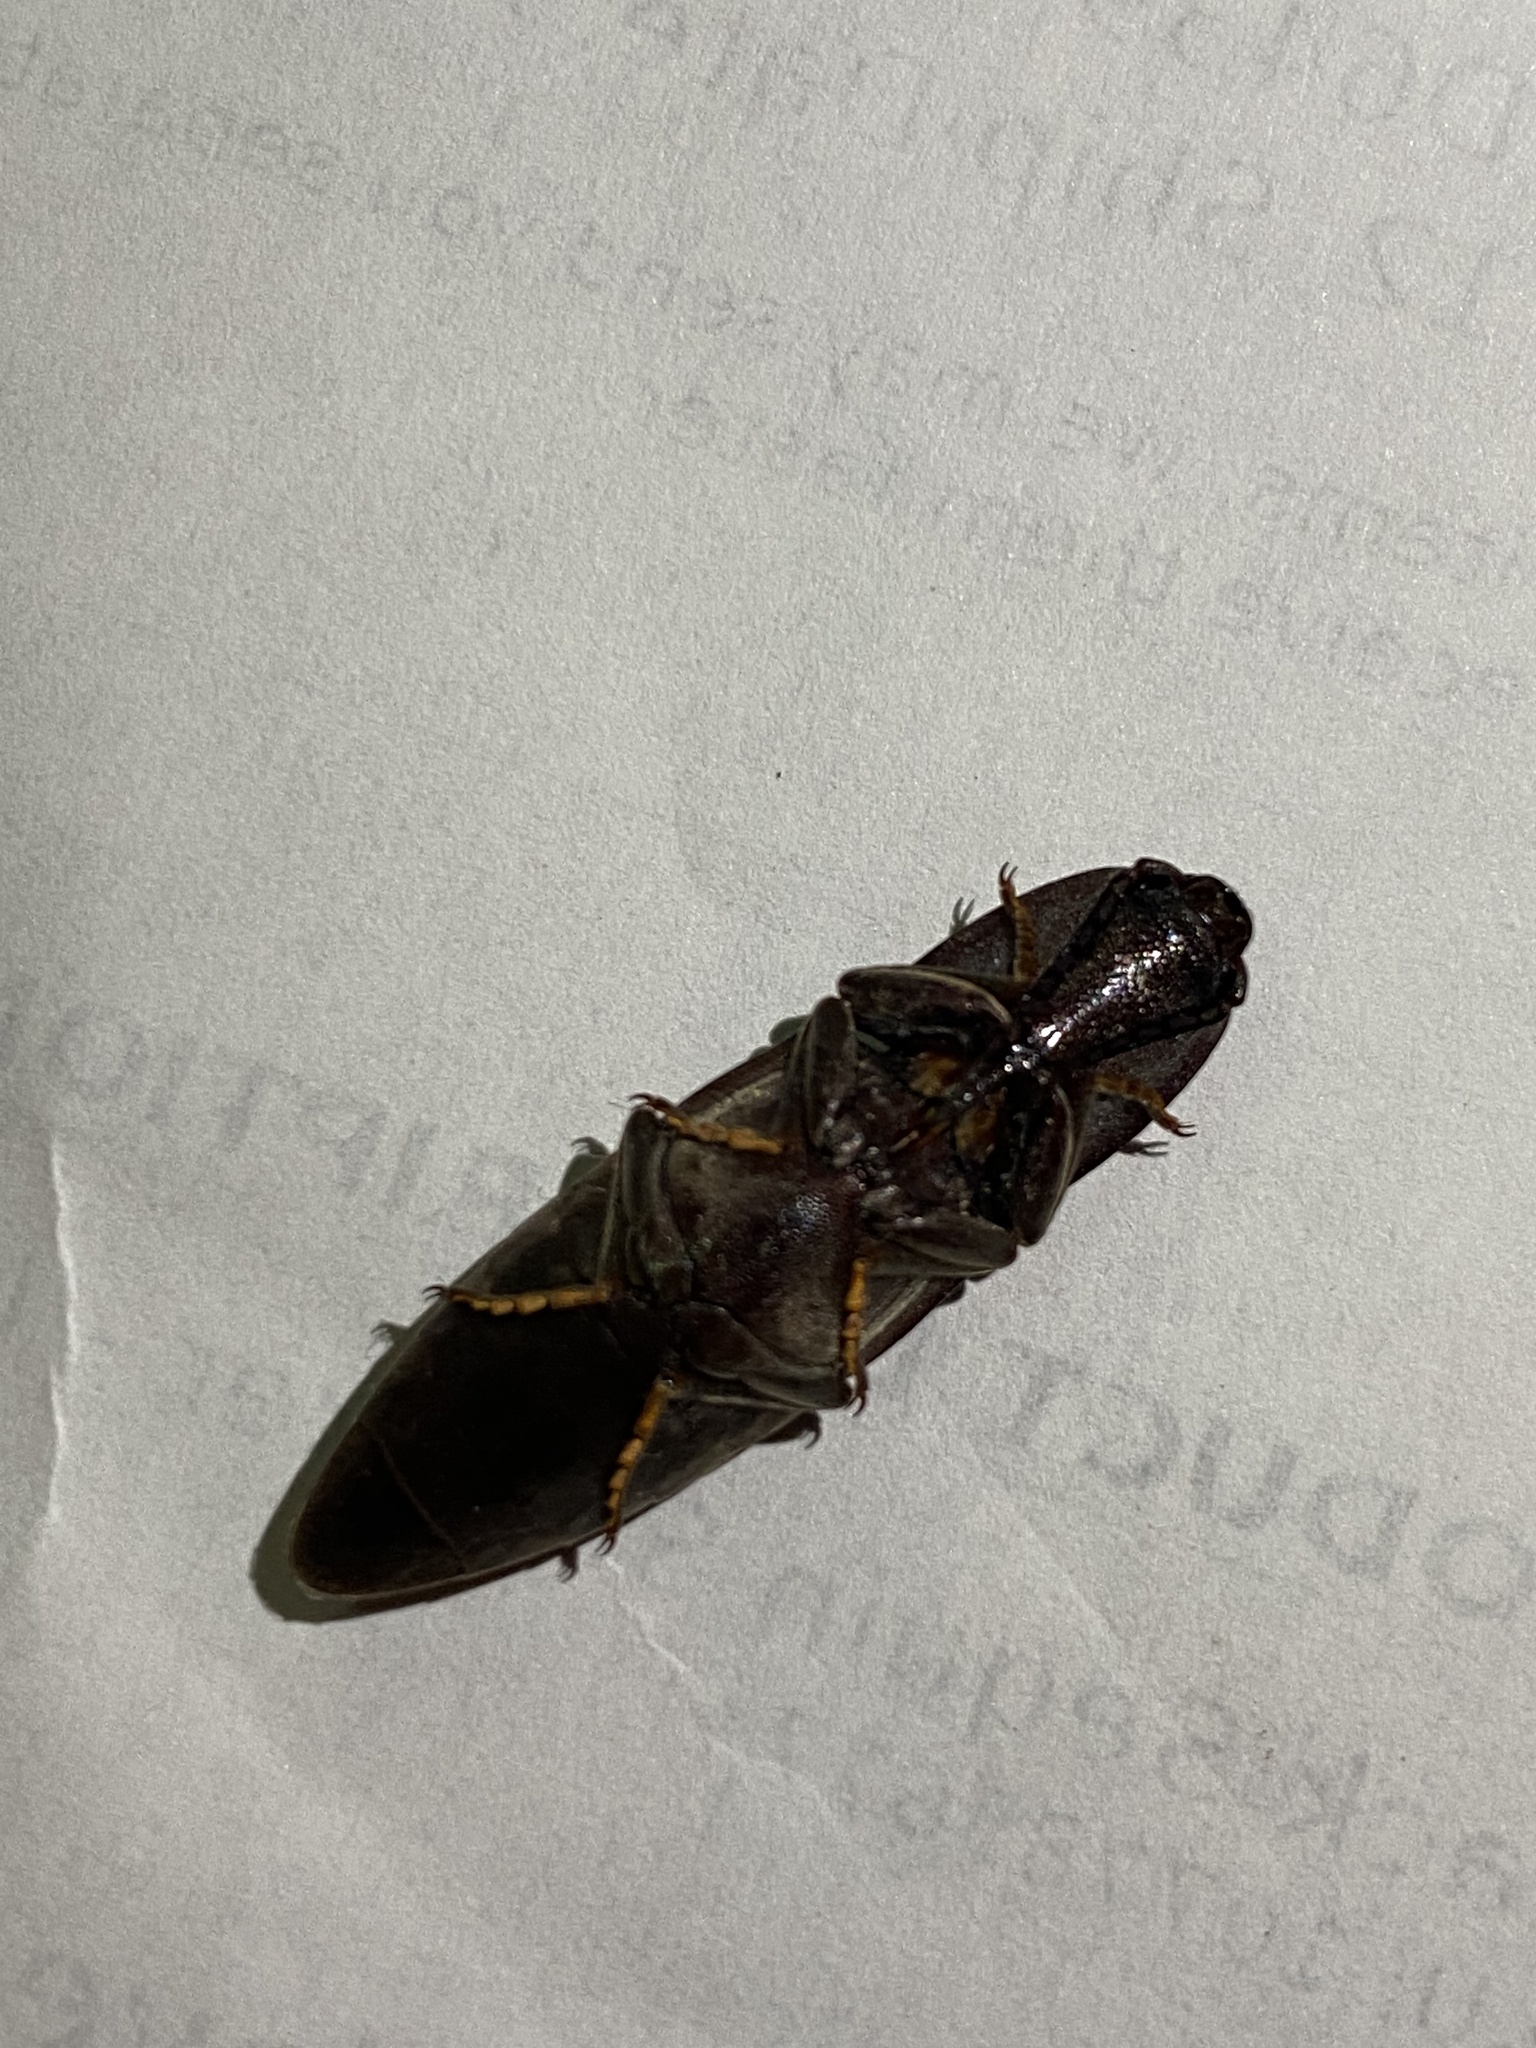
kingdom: Animalia
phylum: Arthropoda
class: Insecta
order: Coleoptera
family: Elateridae
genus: Lanelater
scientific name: Lanelater
